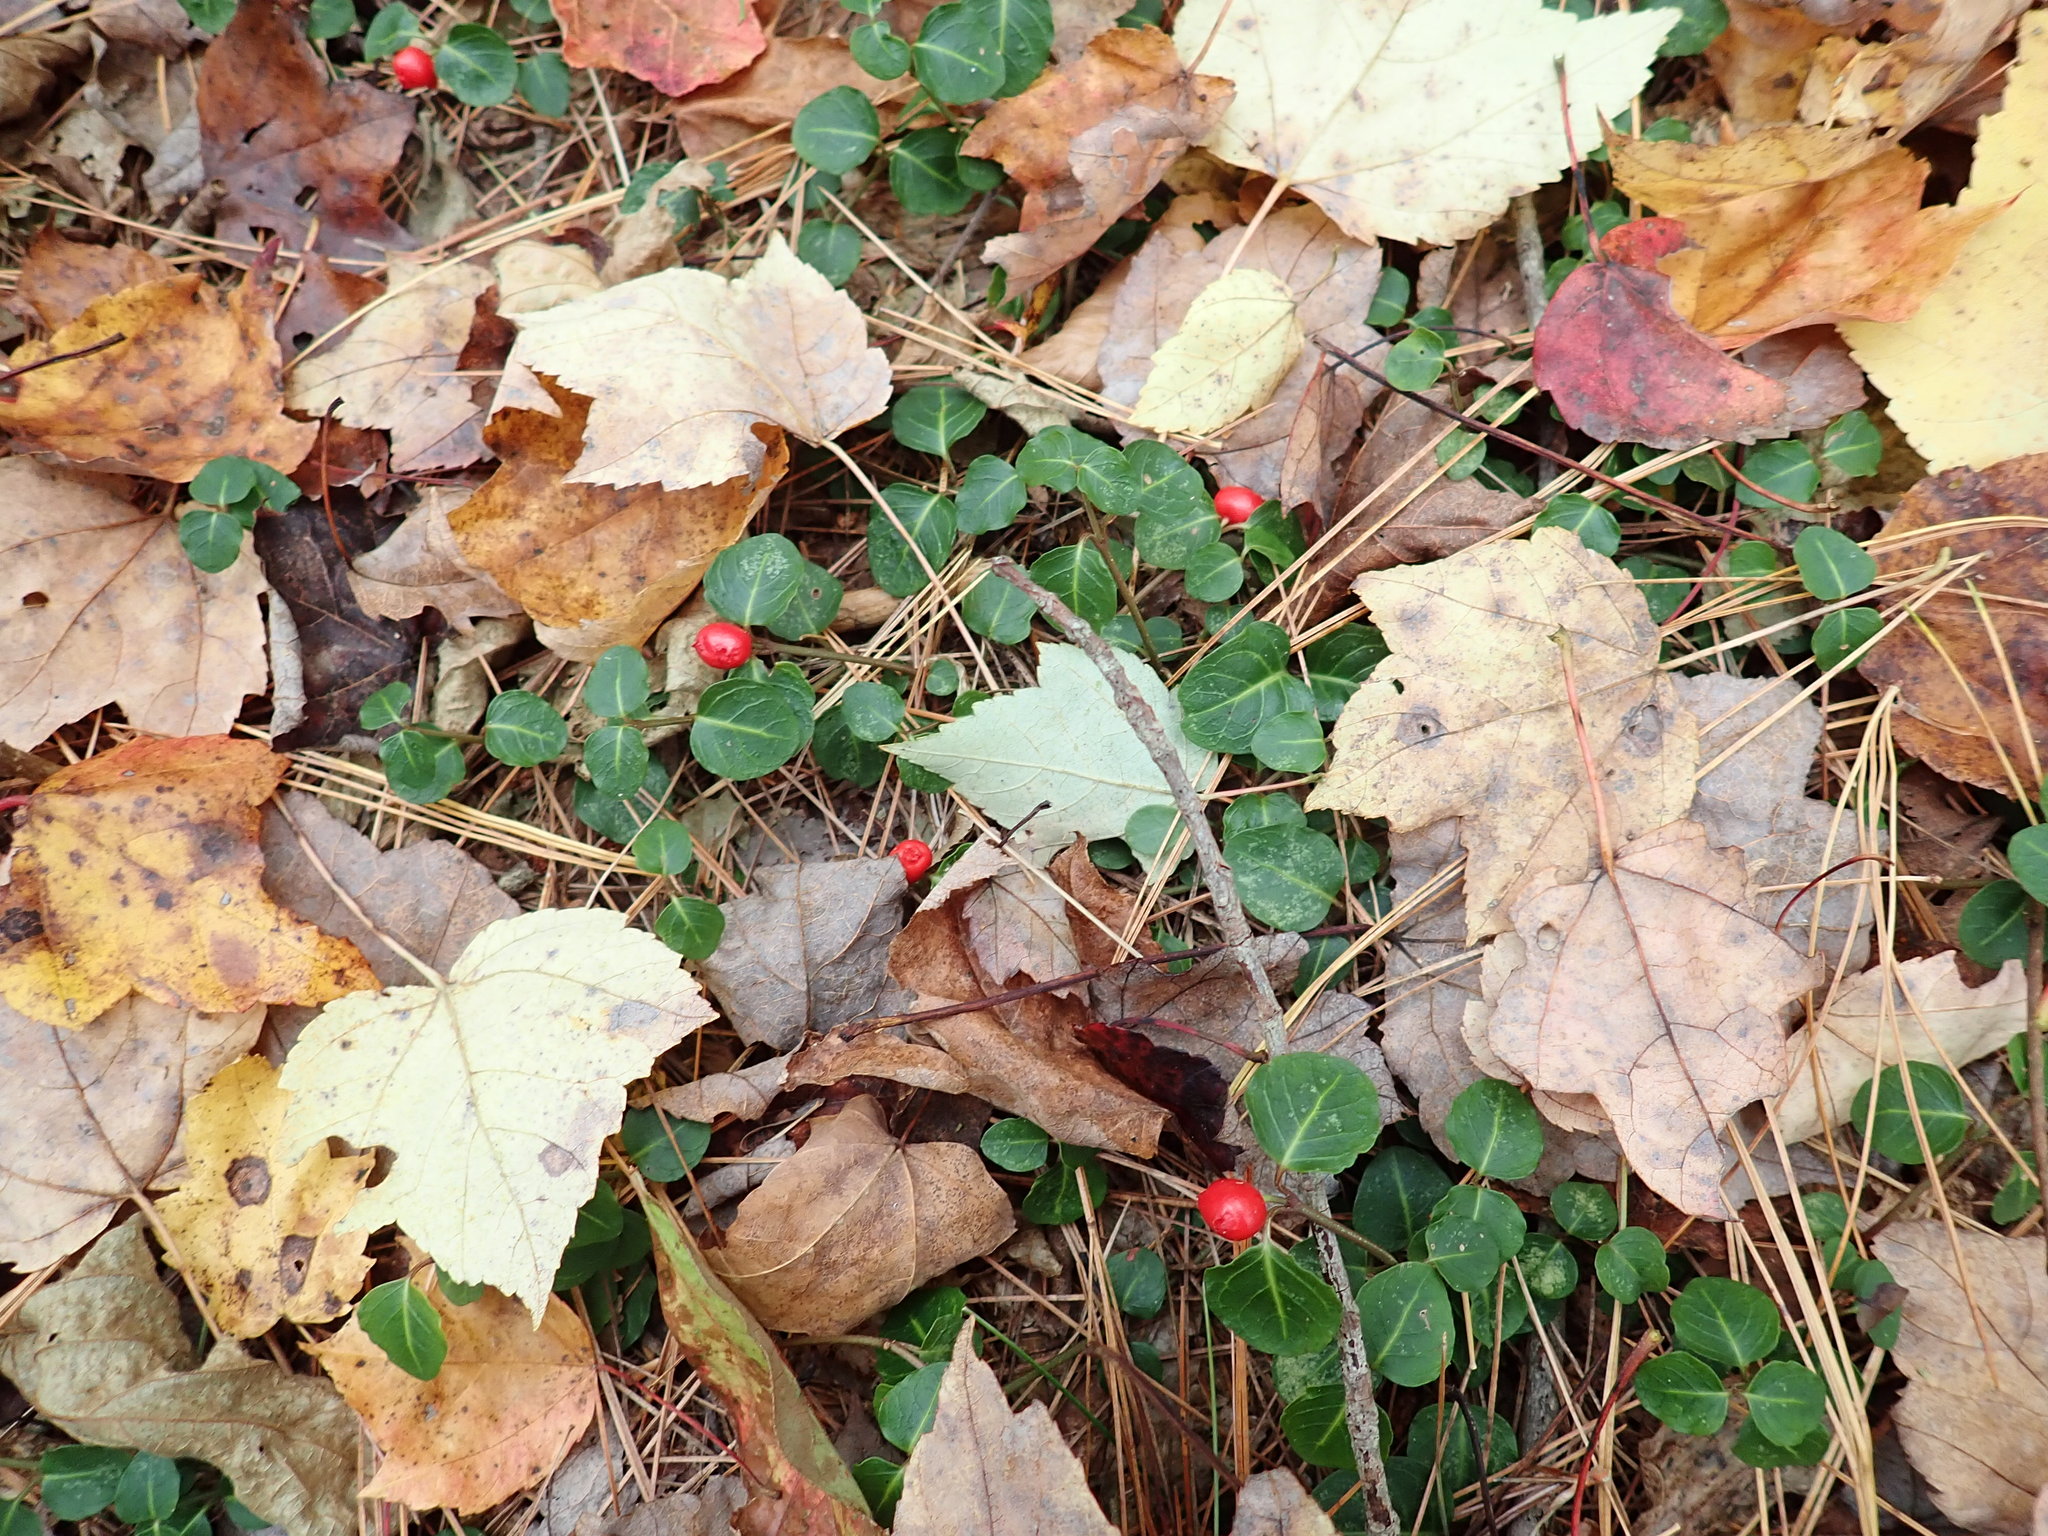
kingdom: Plantae
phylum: Tracheophyta
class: Magnoliopsida
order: Gentianales
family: Rubiaceae
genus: Mitchella
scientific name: Mitchella repens
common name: Partridge-berry
